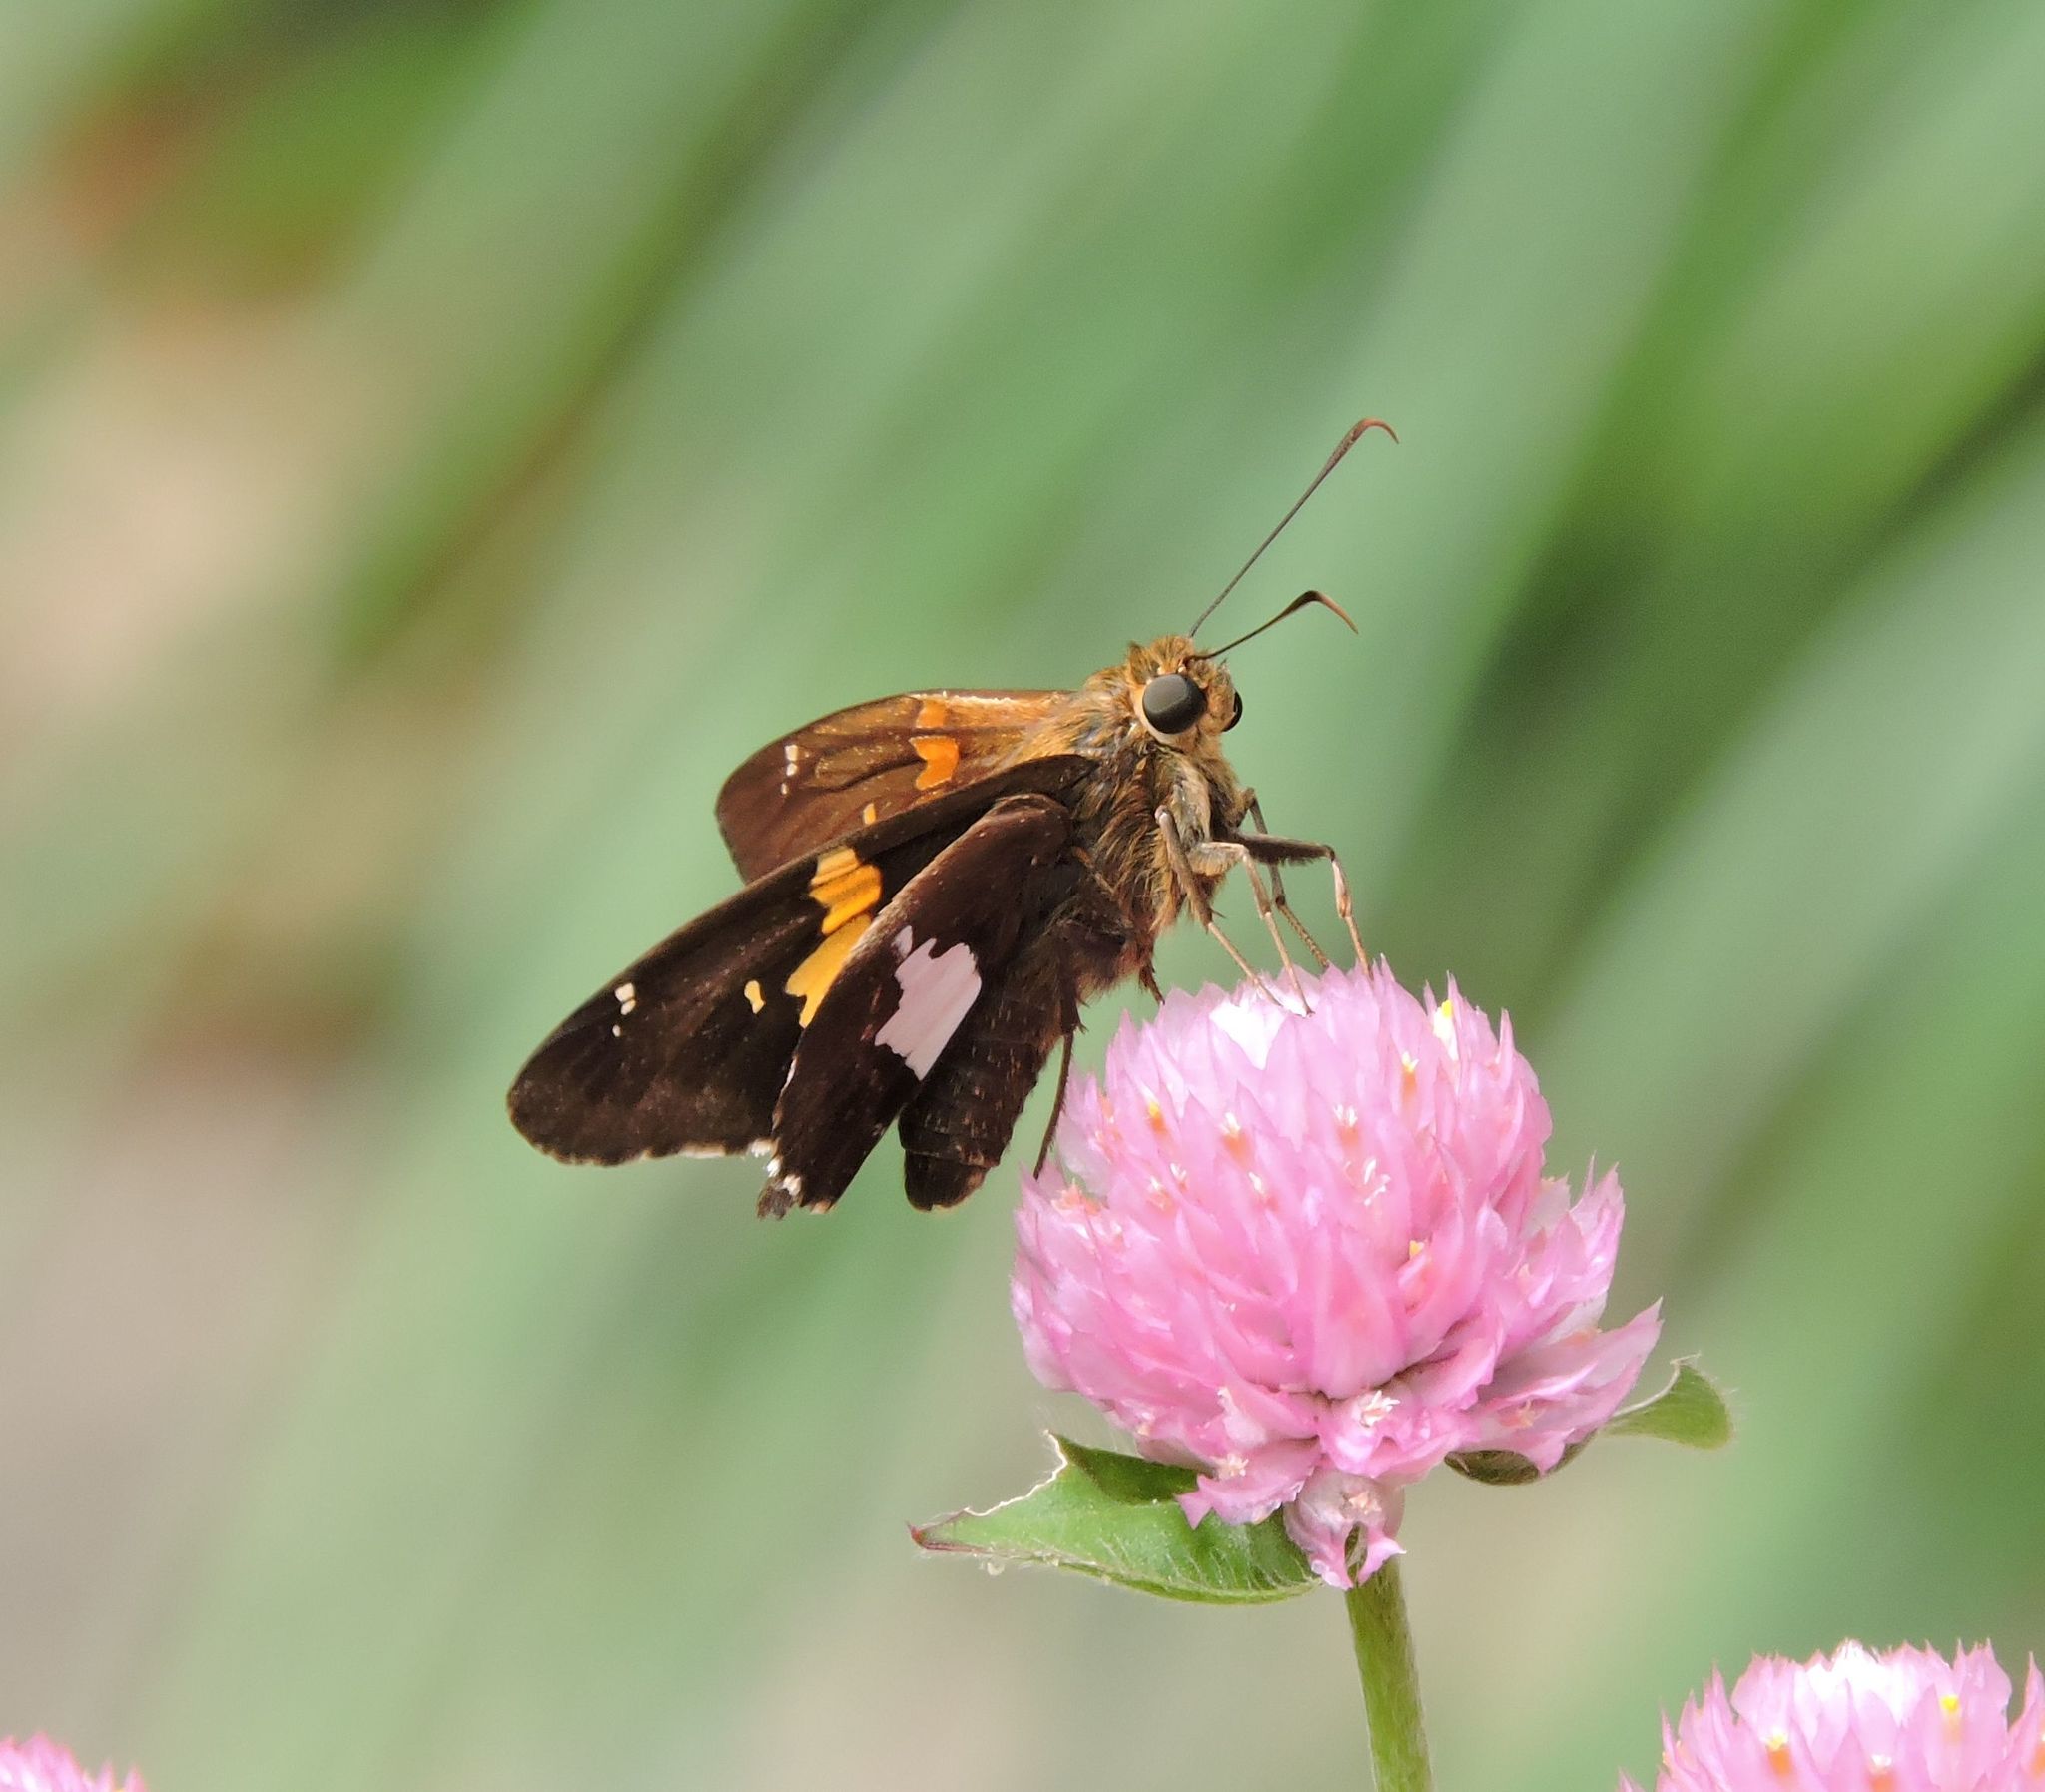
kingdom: Animalia
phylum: Arthropoda
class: Insecta
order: Lepidoptera
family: Hesperiidae
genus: Epargyreus
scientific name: Epargyreus clarus
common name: Silver-spotted skipper
